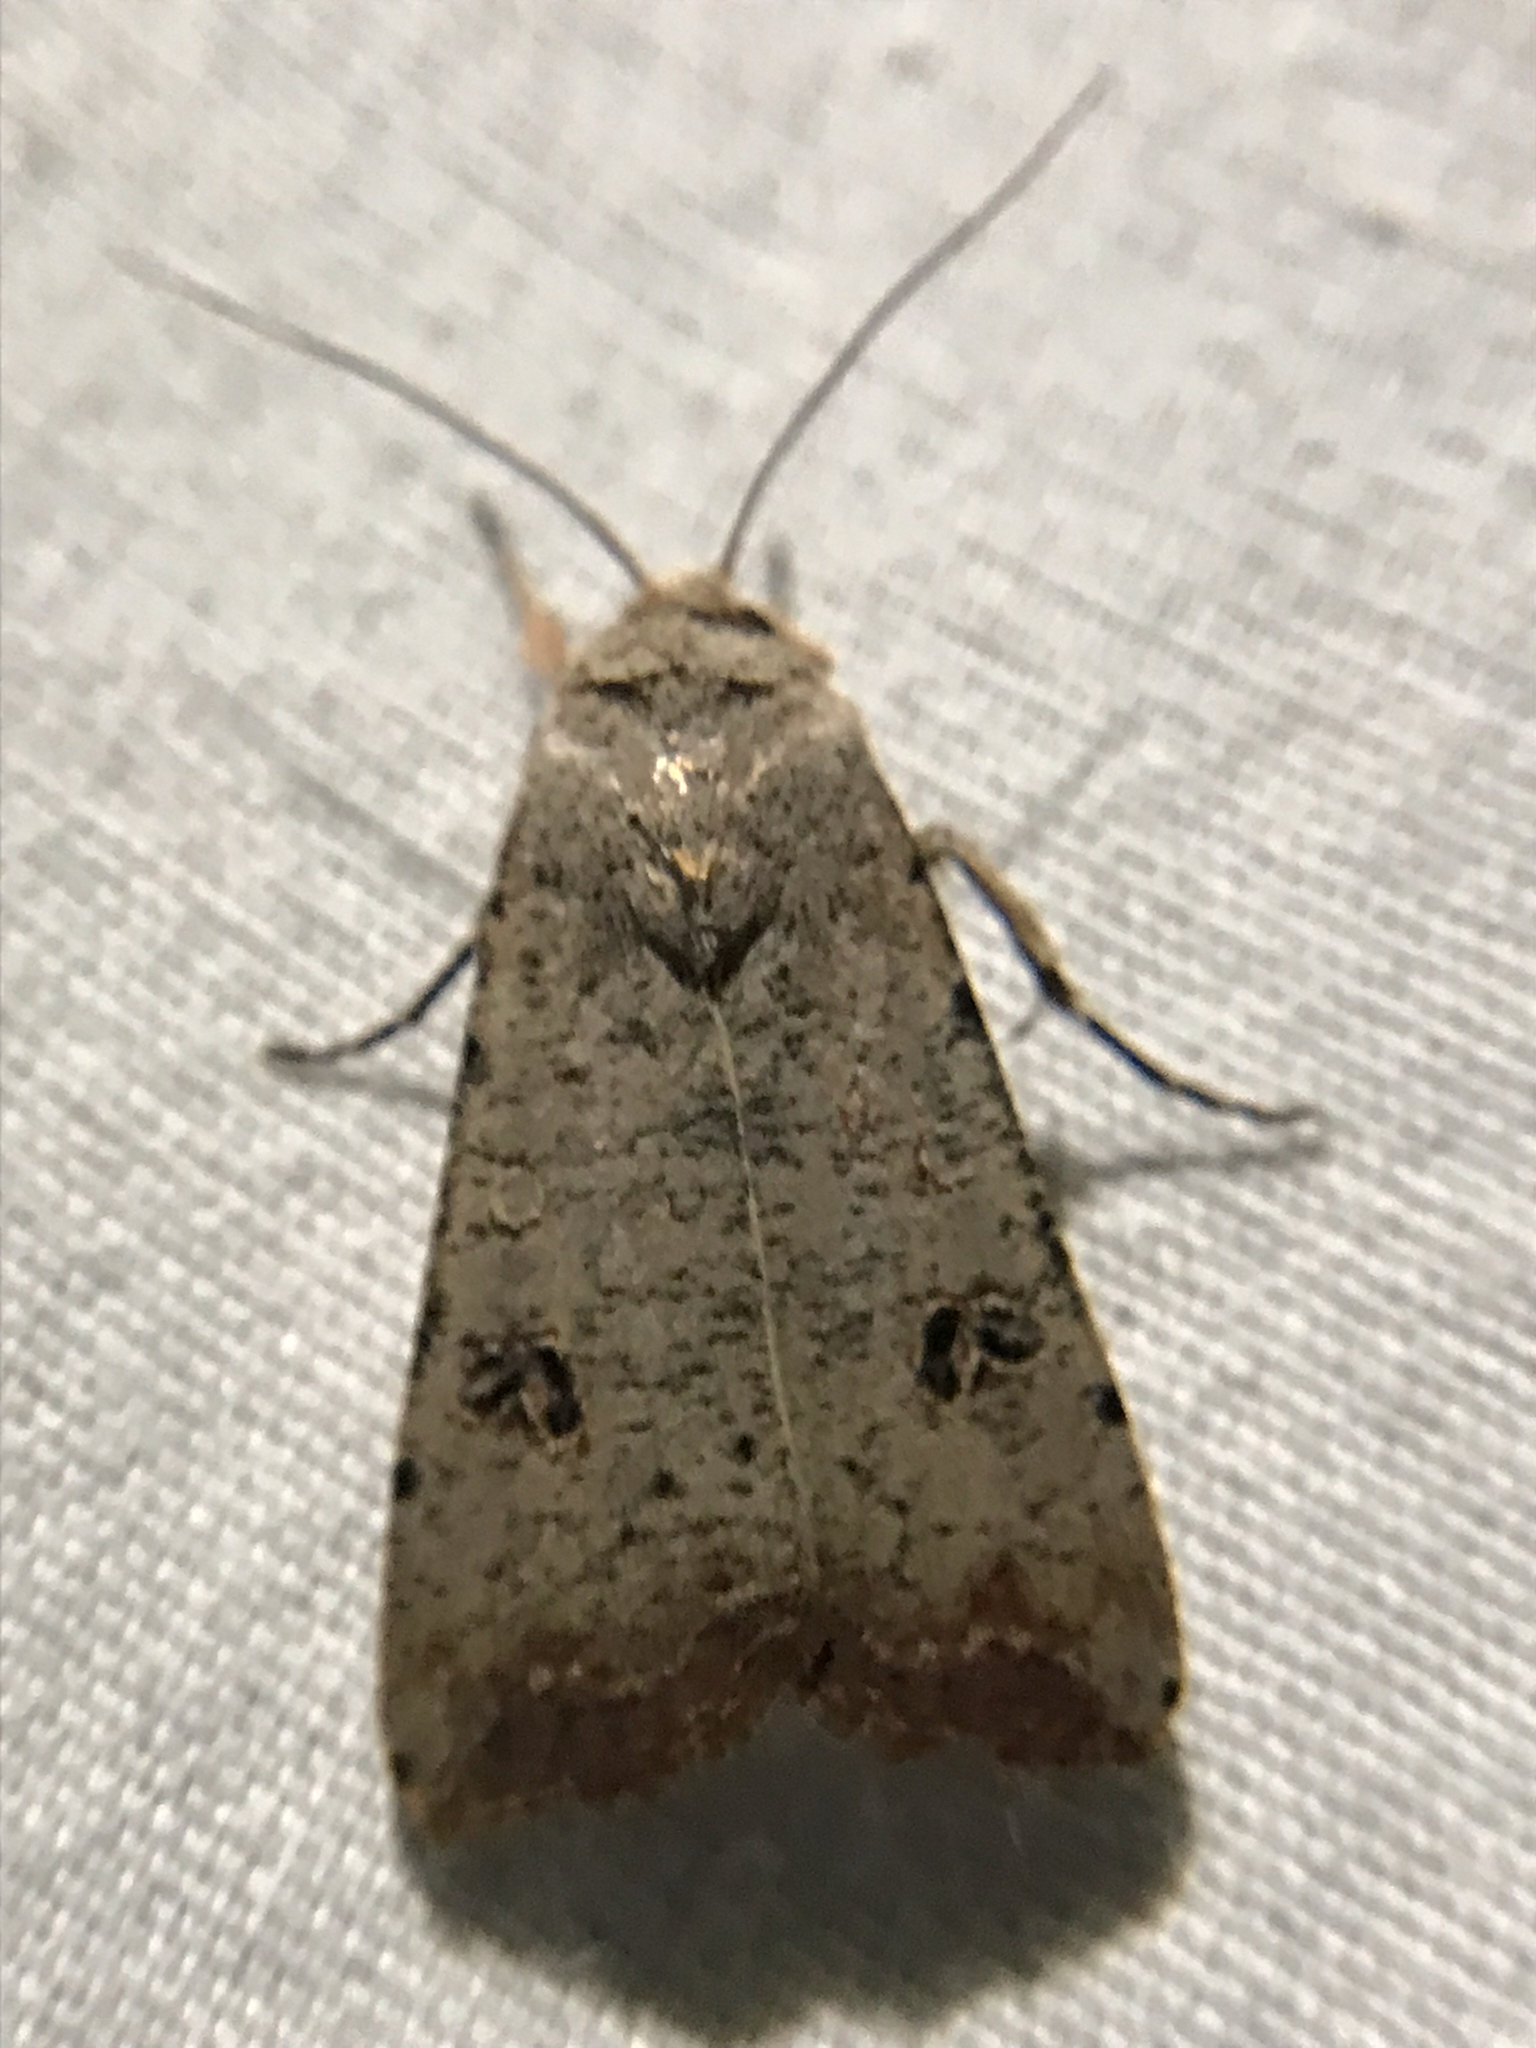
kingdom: Animalia
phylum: Arthropoda
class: Insecta
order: Lepidoptera
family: Noctuidae
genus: Anicla
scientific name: Anicla infecta
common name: Green cutworm
